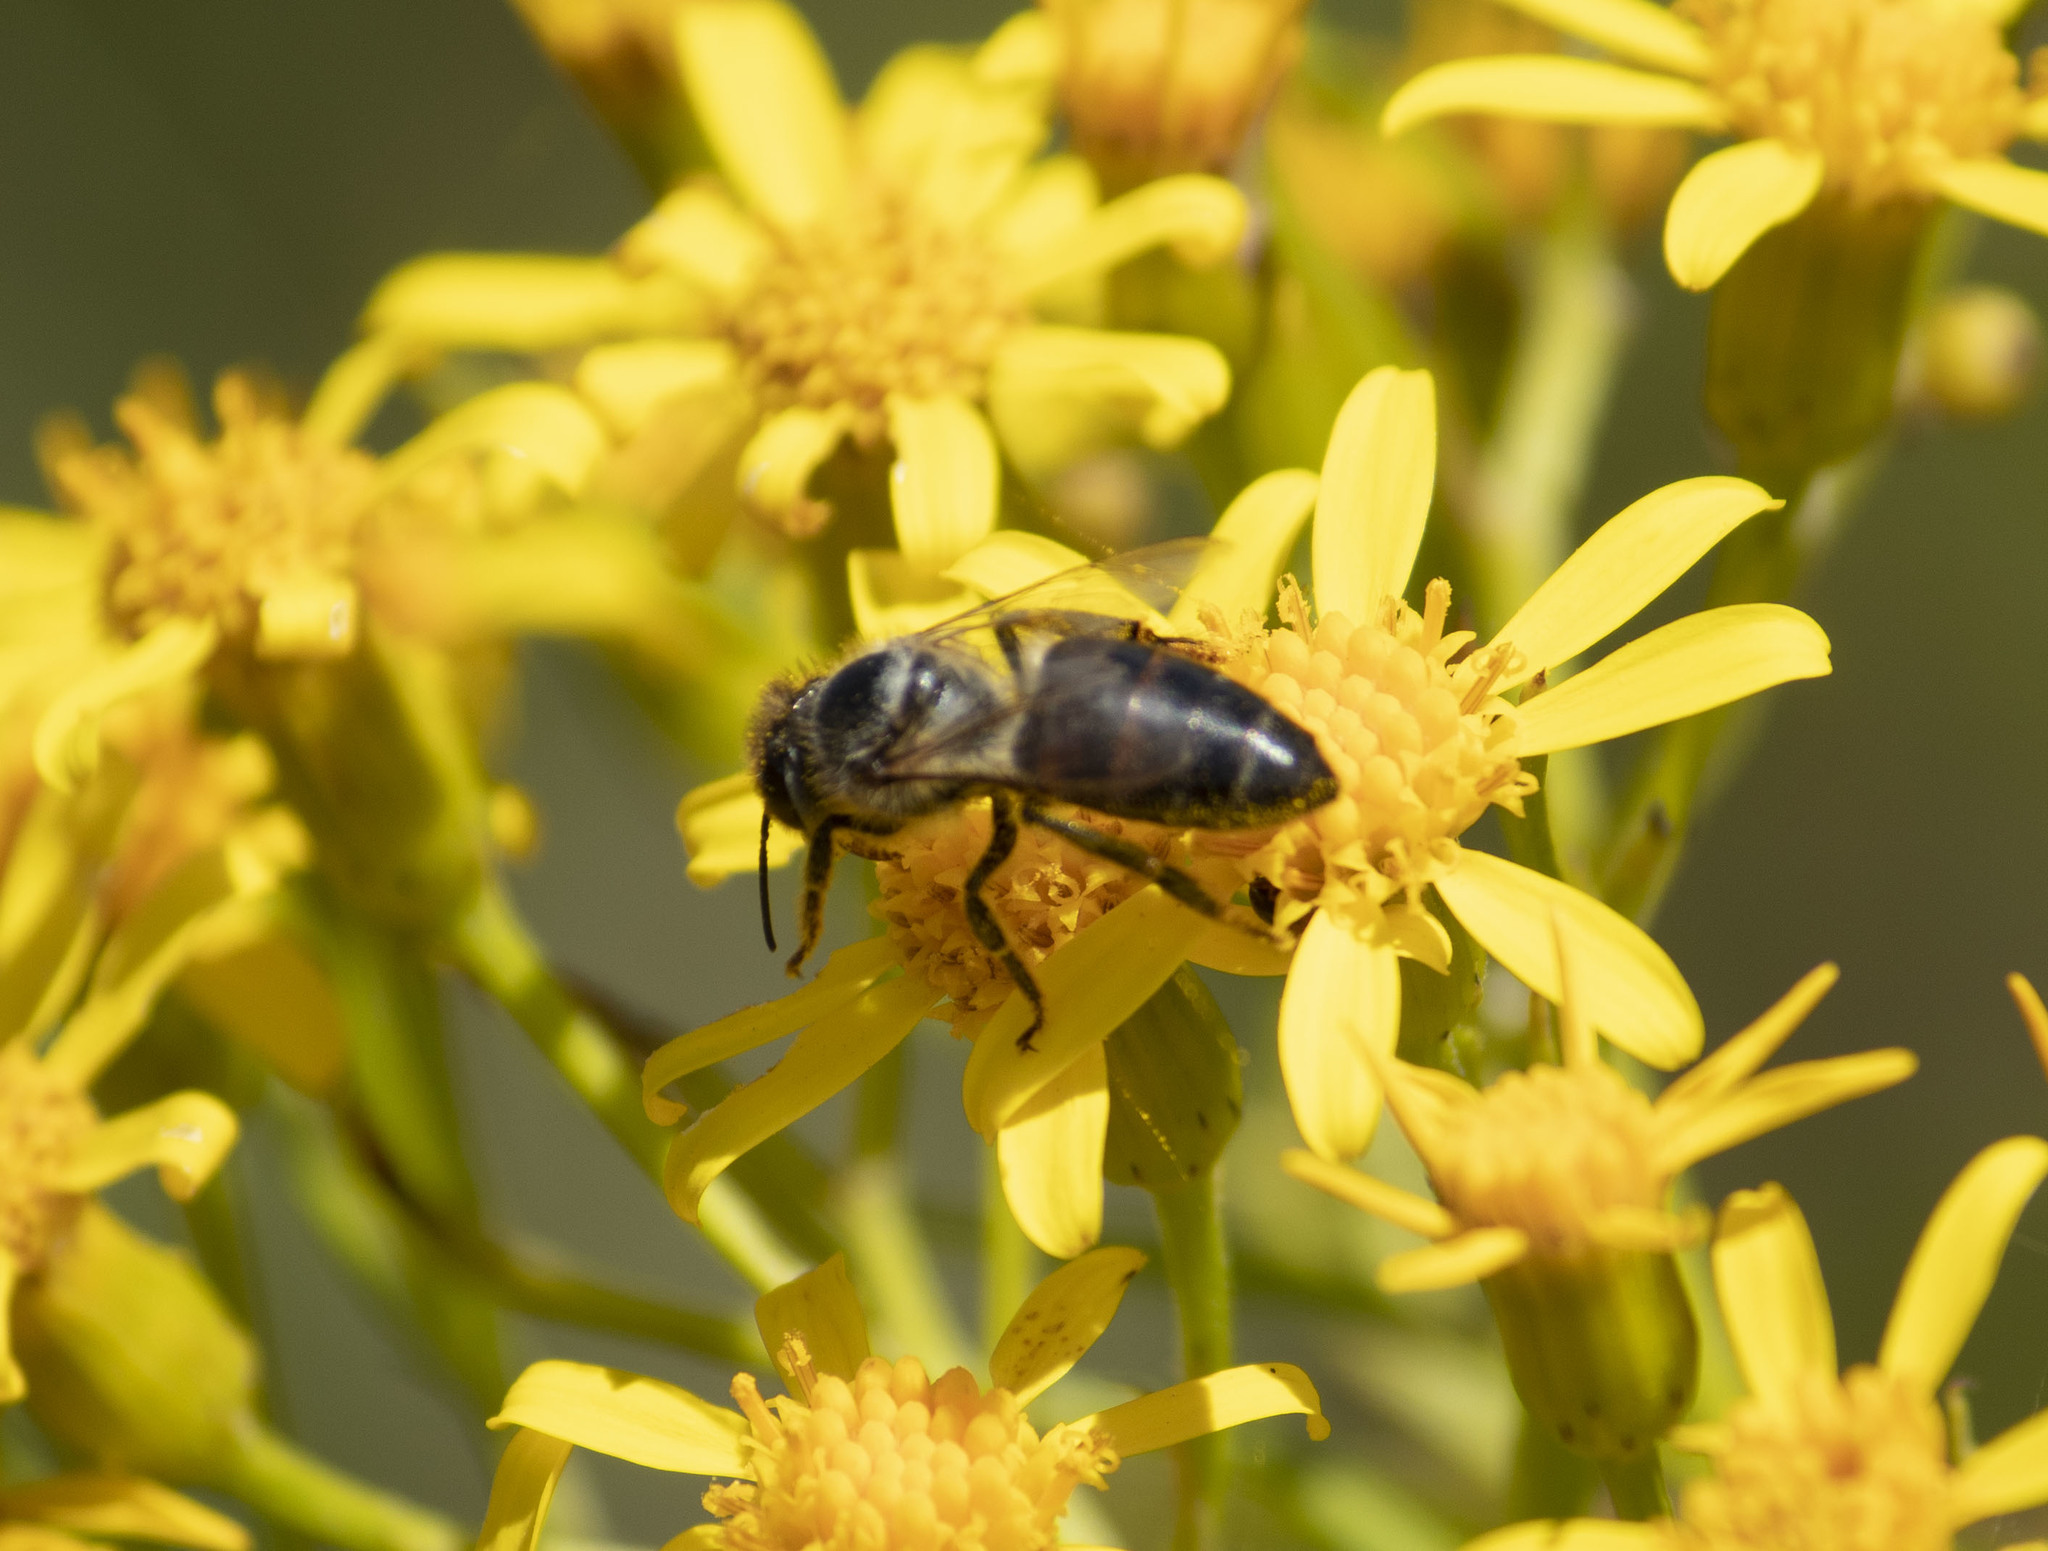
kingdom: Animalia
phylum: Arthropoda
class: Insecta
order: Hymenoptera
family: Apidae
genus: Apis
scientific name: Apis mellifera
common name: Honey bee
